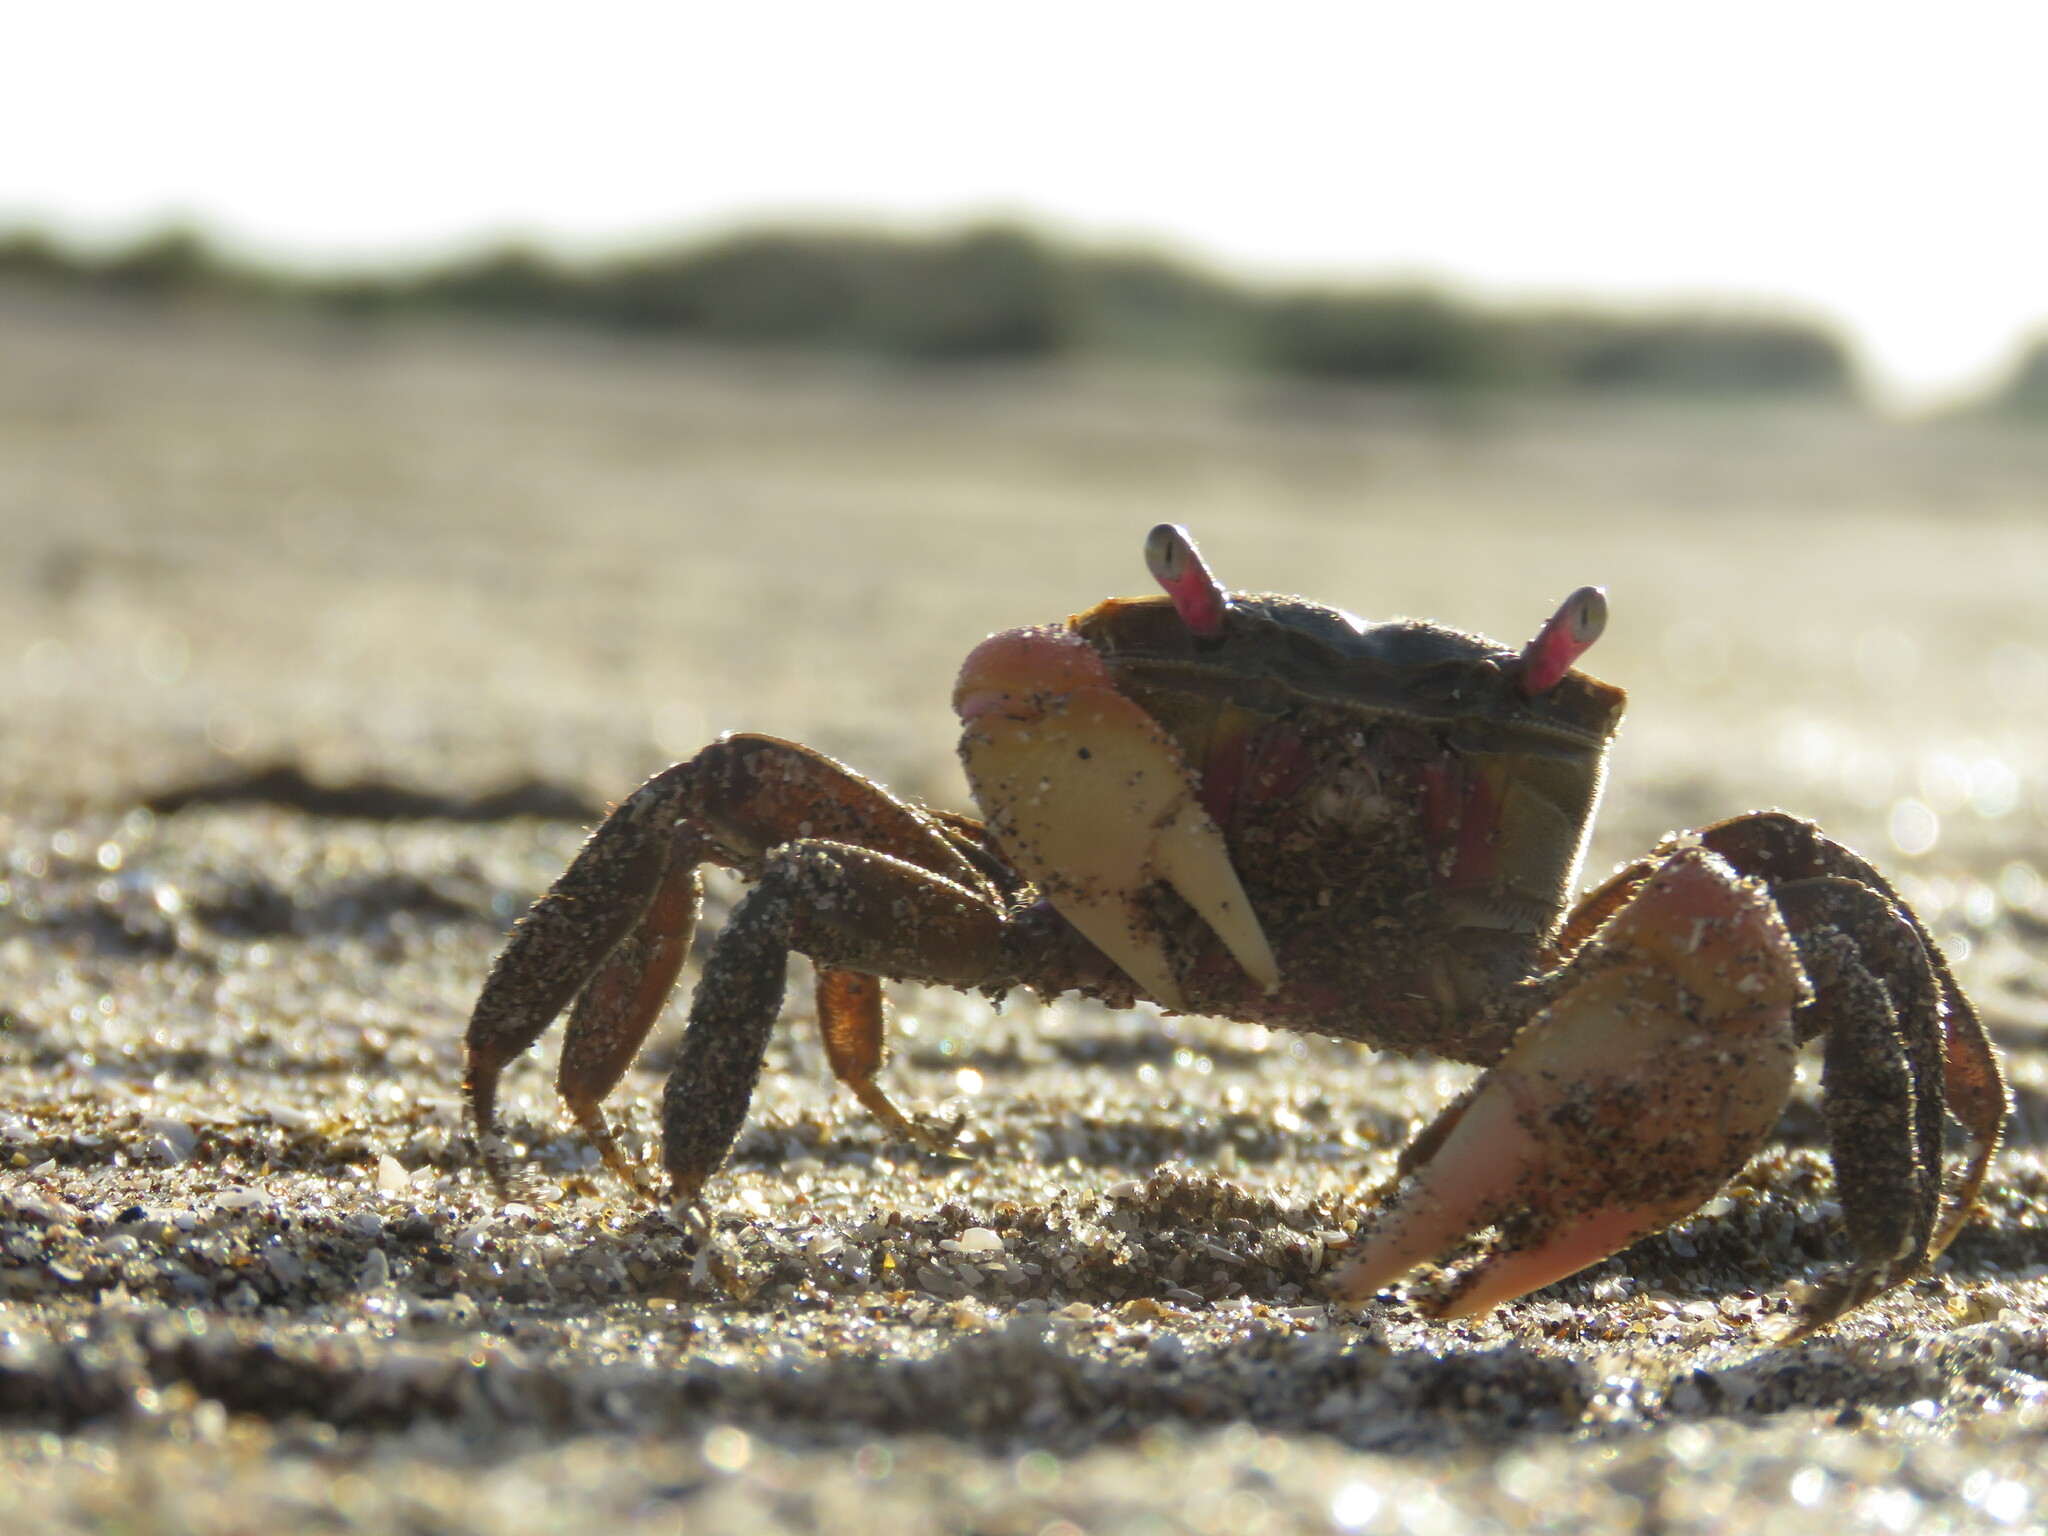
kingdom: Animalia
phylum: Arthropoda
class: Malacostraca
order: Decapoda
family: Varunidae
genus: Neohelice
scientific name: Neohelice granulata
